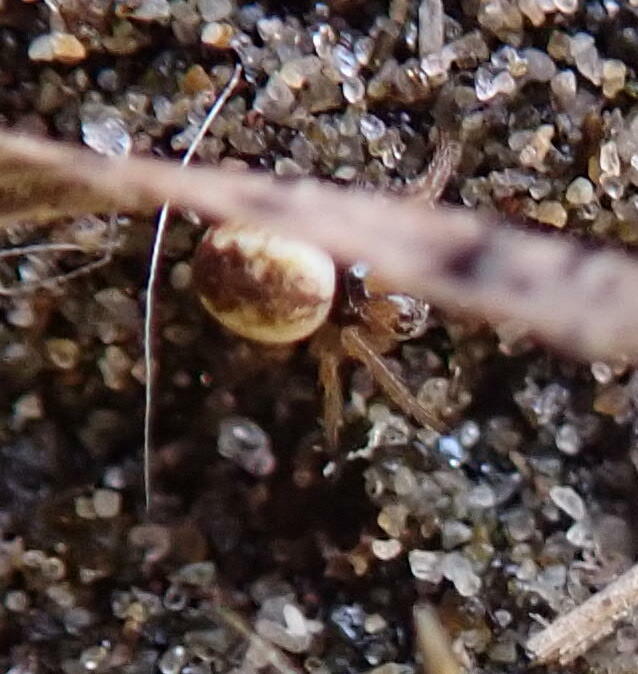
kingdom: Animalia
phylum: Arthropoda
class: Arachnida
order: Araneae
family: Araneidae
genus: Salsa
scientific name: Salsa fuliginata
